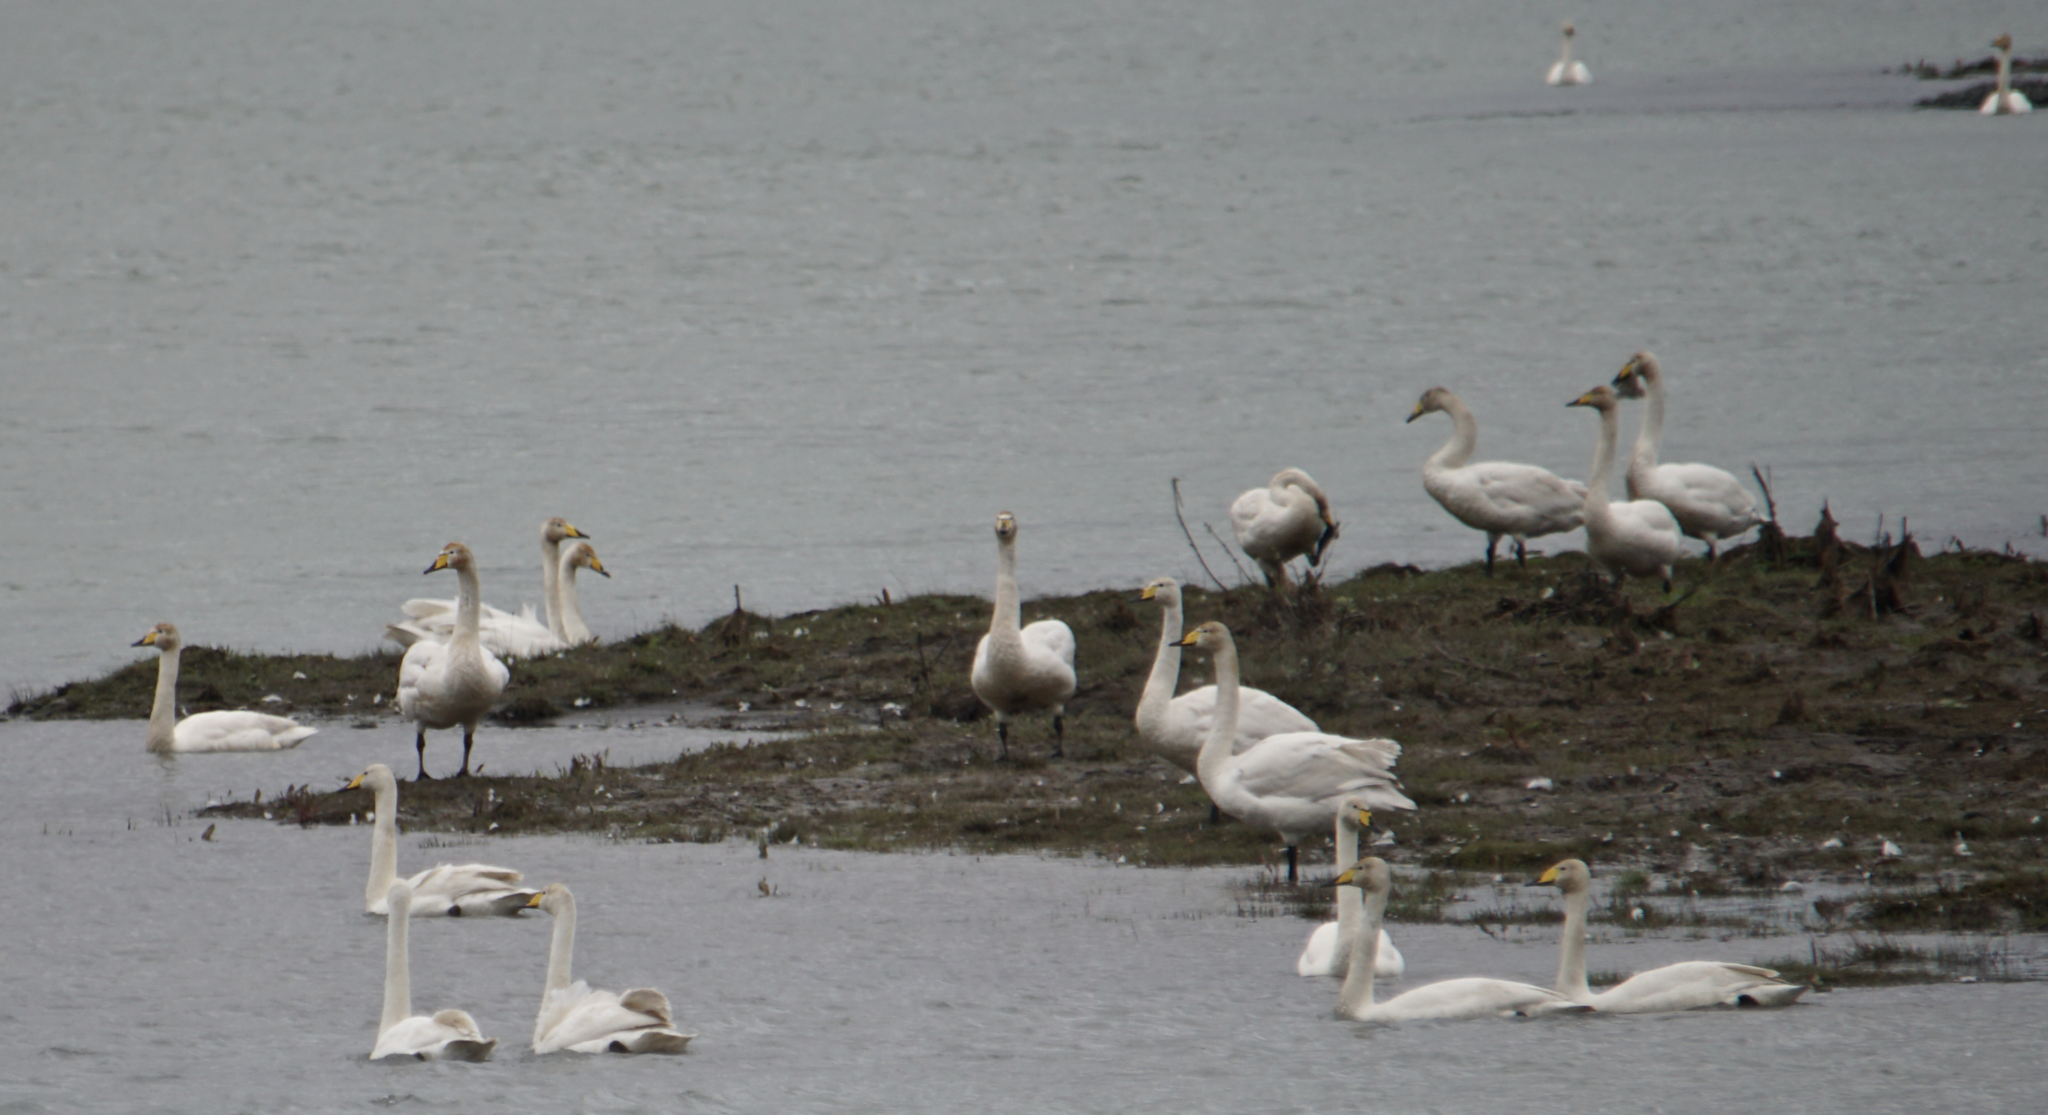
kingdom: Animalia
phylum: Chordata
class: Aves
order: Anseriformes
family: Anatidae
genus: Cygnus
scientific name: Cygnus cygnus
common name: Whooper swan
